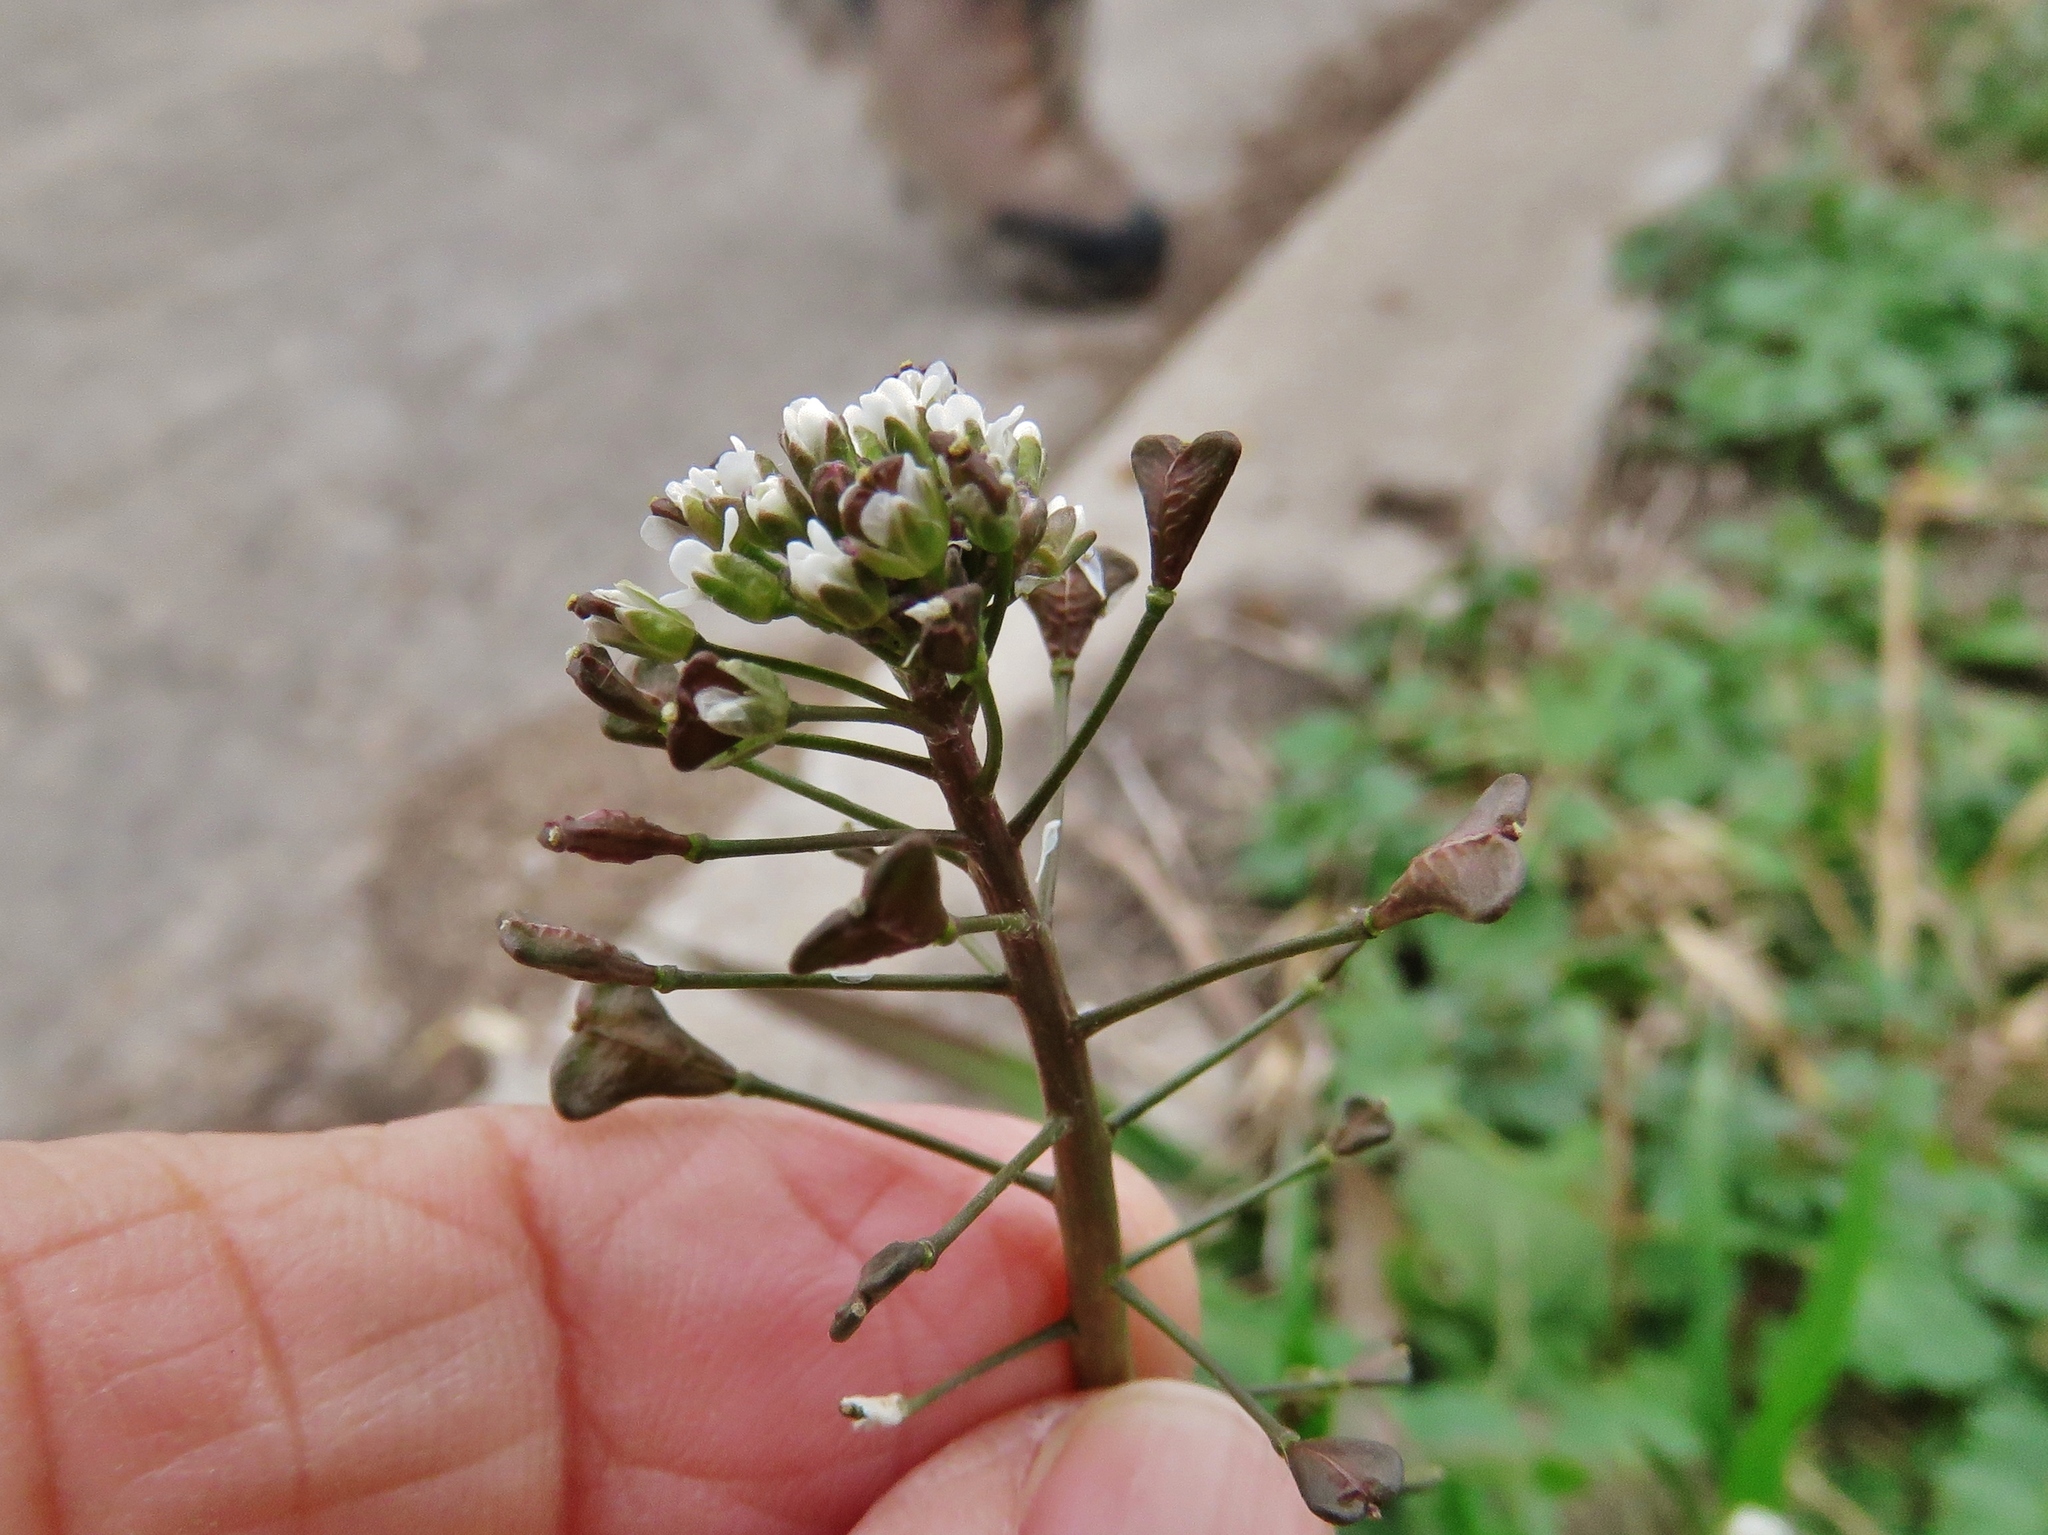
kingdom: Plantae
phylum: Tracheophyta
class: Magnoliopsida
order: Brassicales
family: Brassicaceae
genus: Capsella
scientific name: Capsella bursa-pastoris
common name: Shepherd's purse
